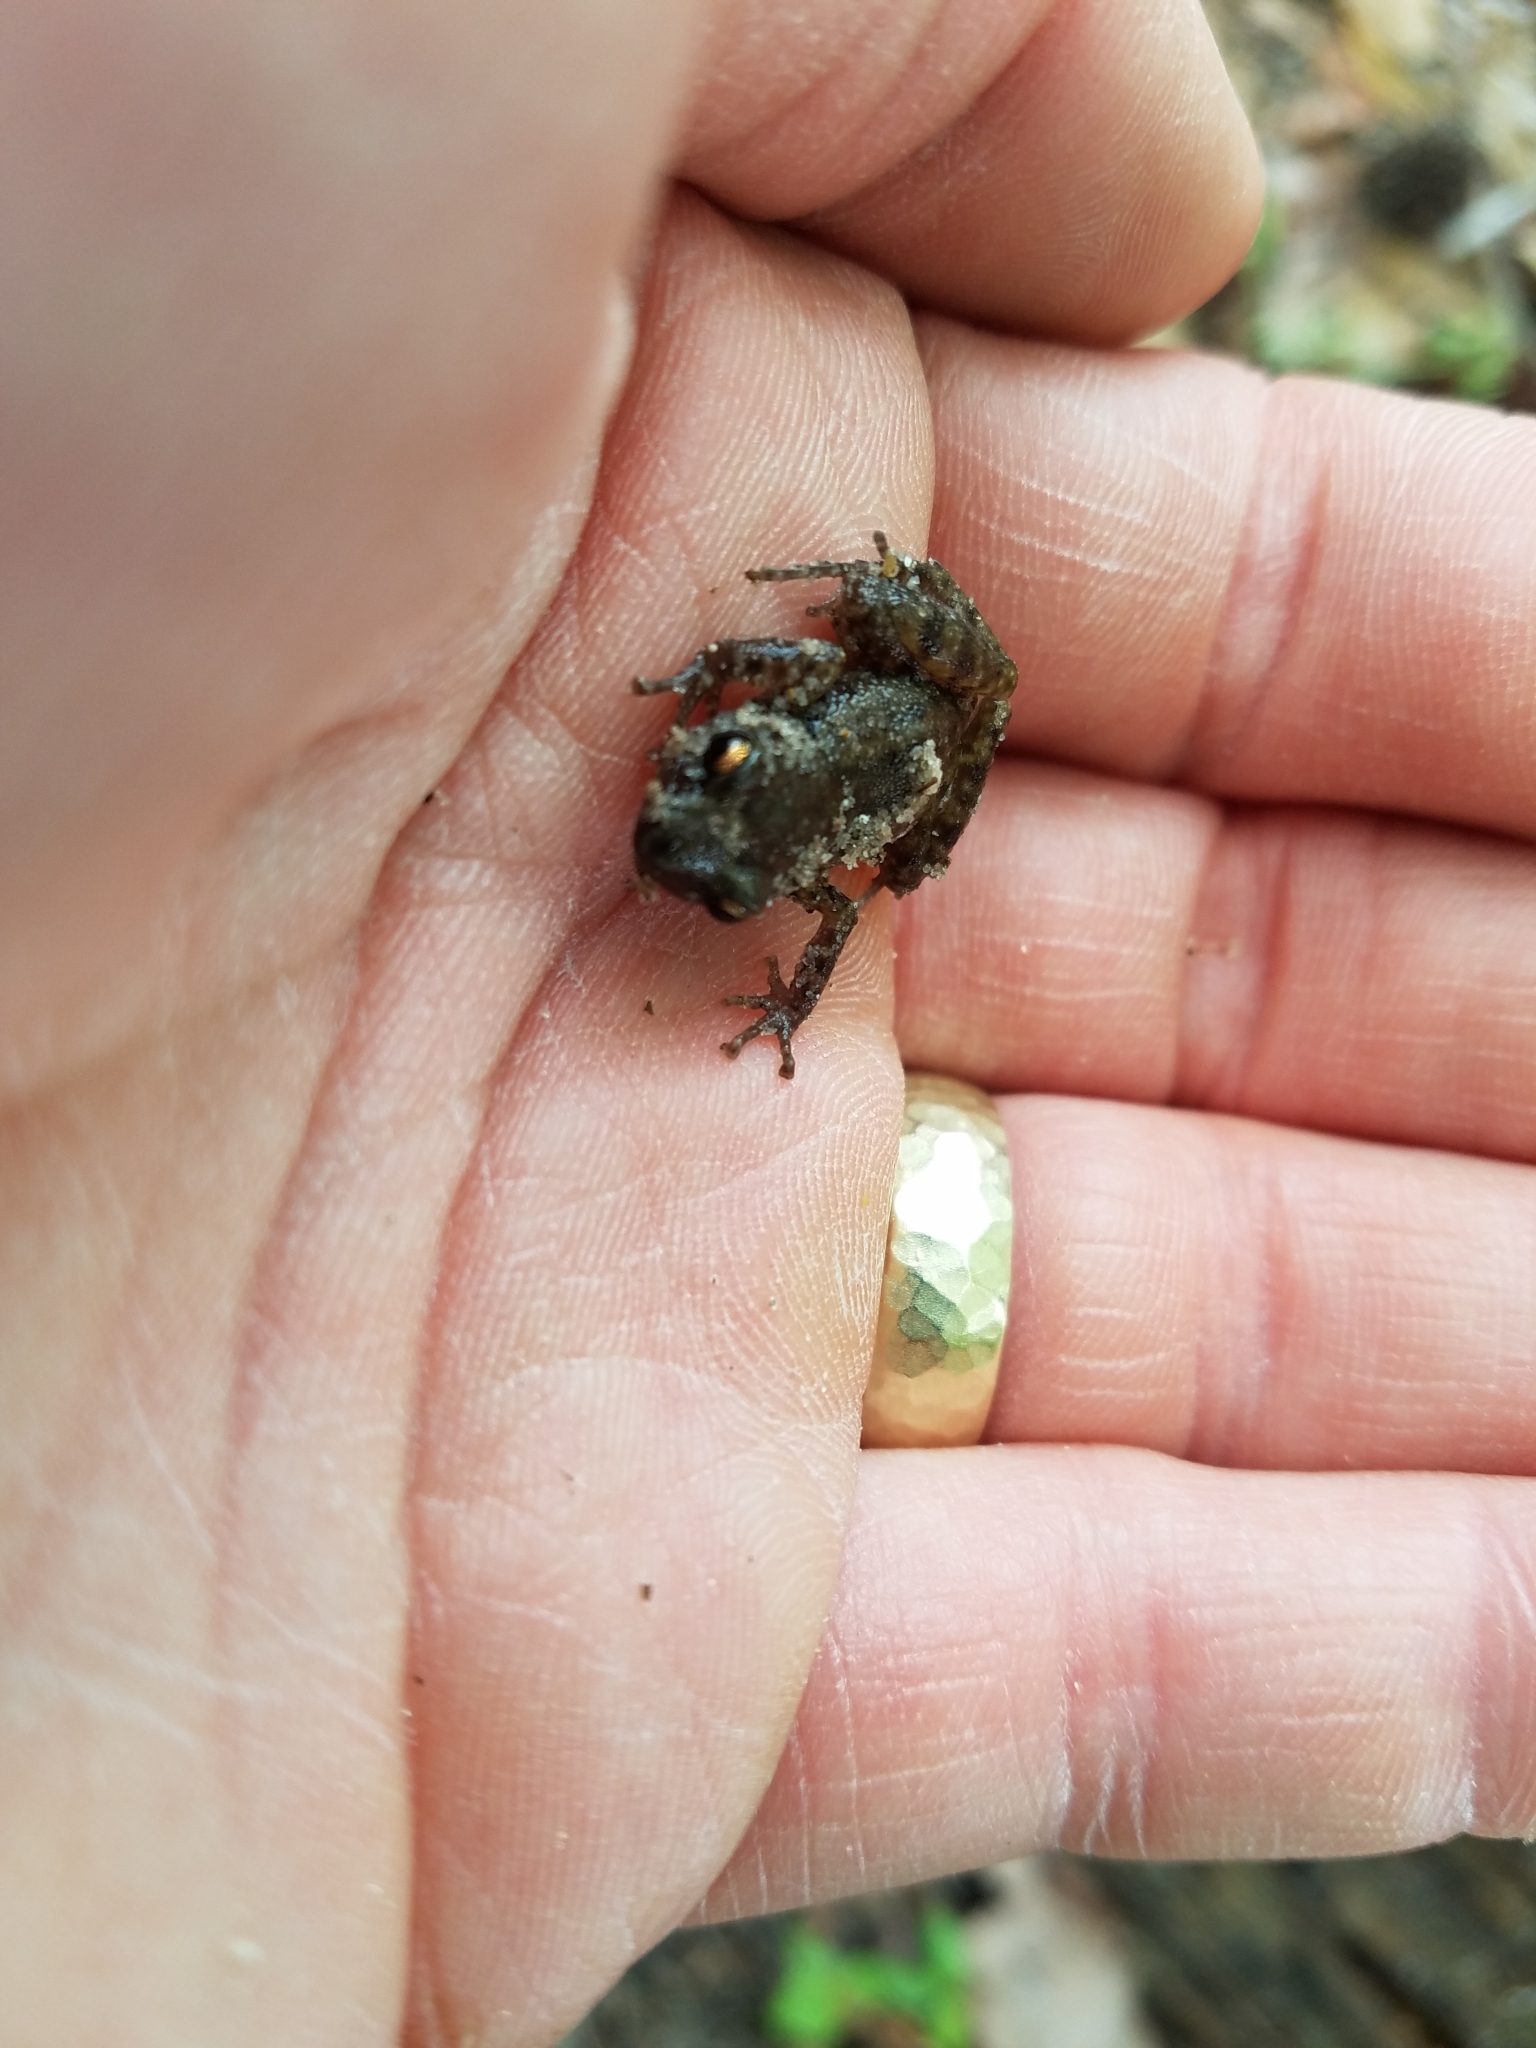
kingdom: Animalia
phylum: Chordata
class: Amphibia
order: Anura
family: Eleutherodactylidae
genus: Eleutherodactylus
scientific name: Eleutherodactylus campi
